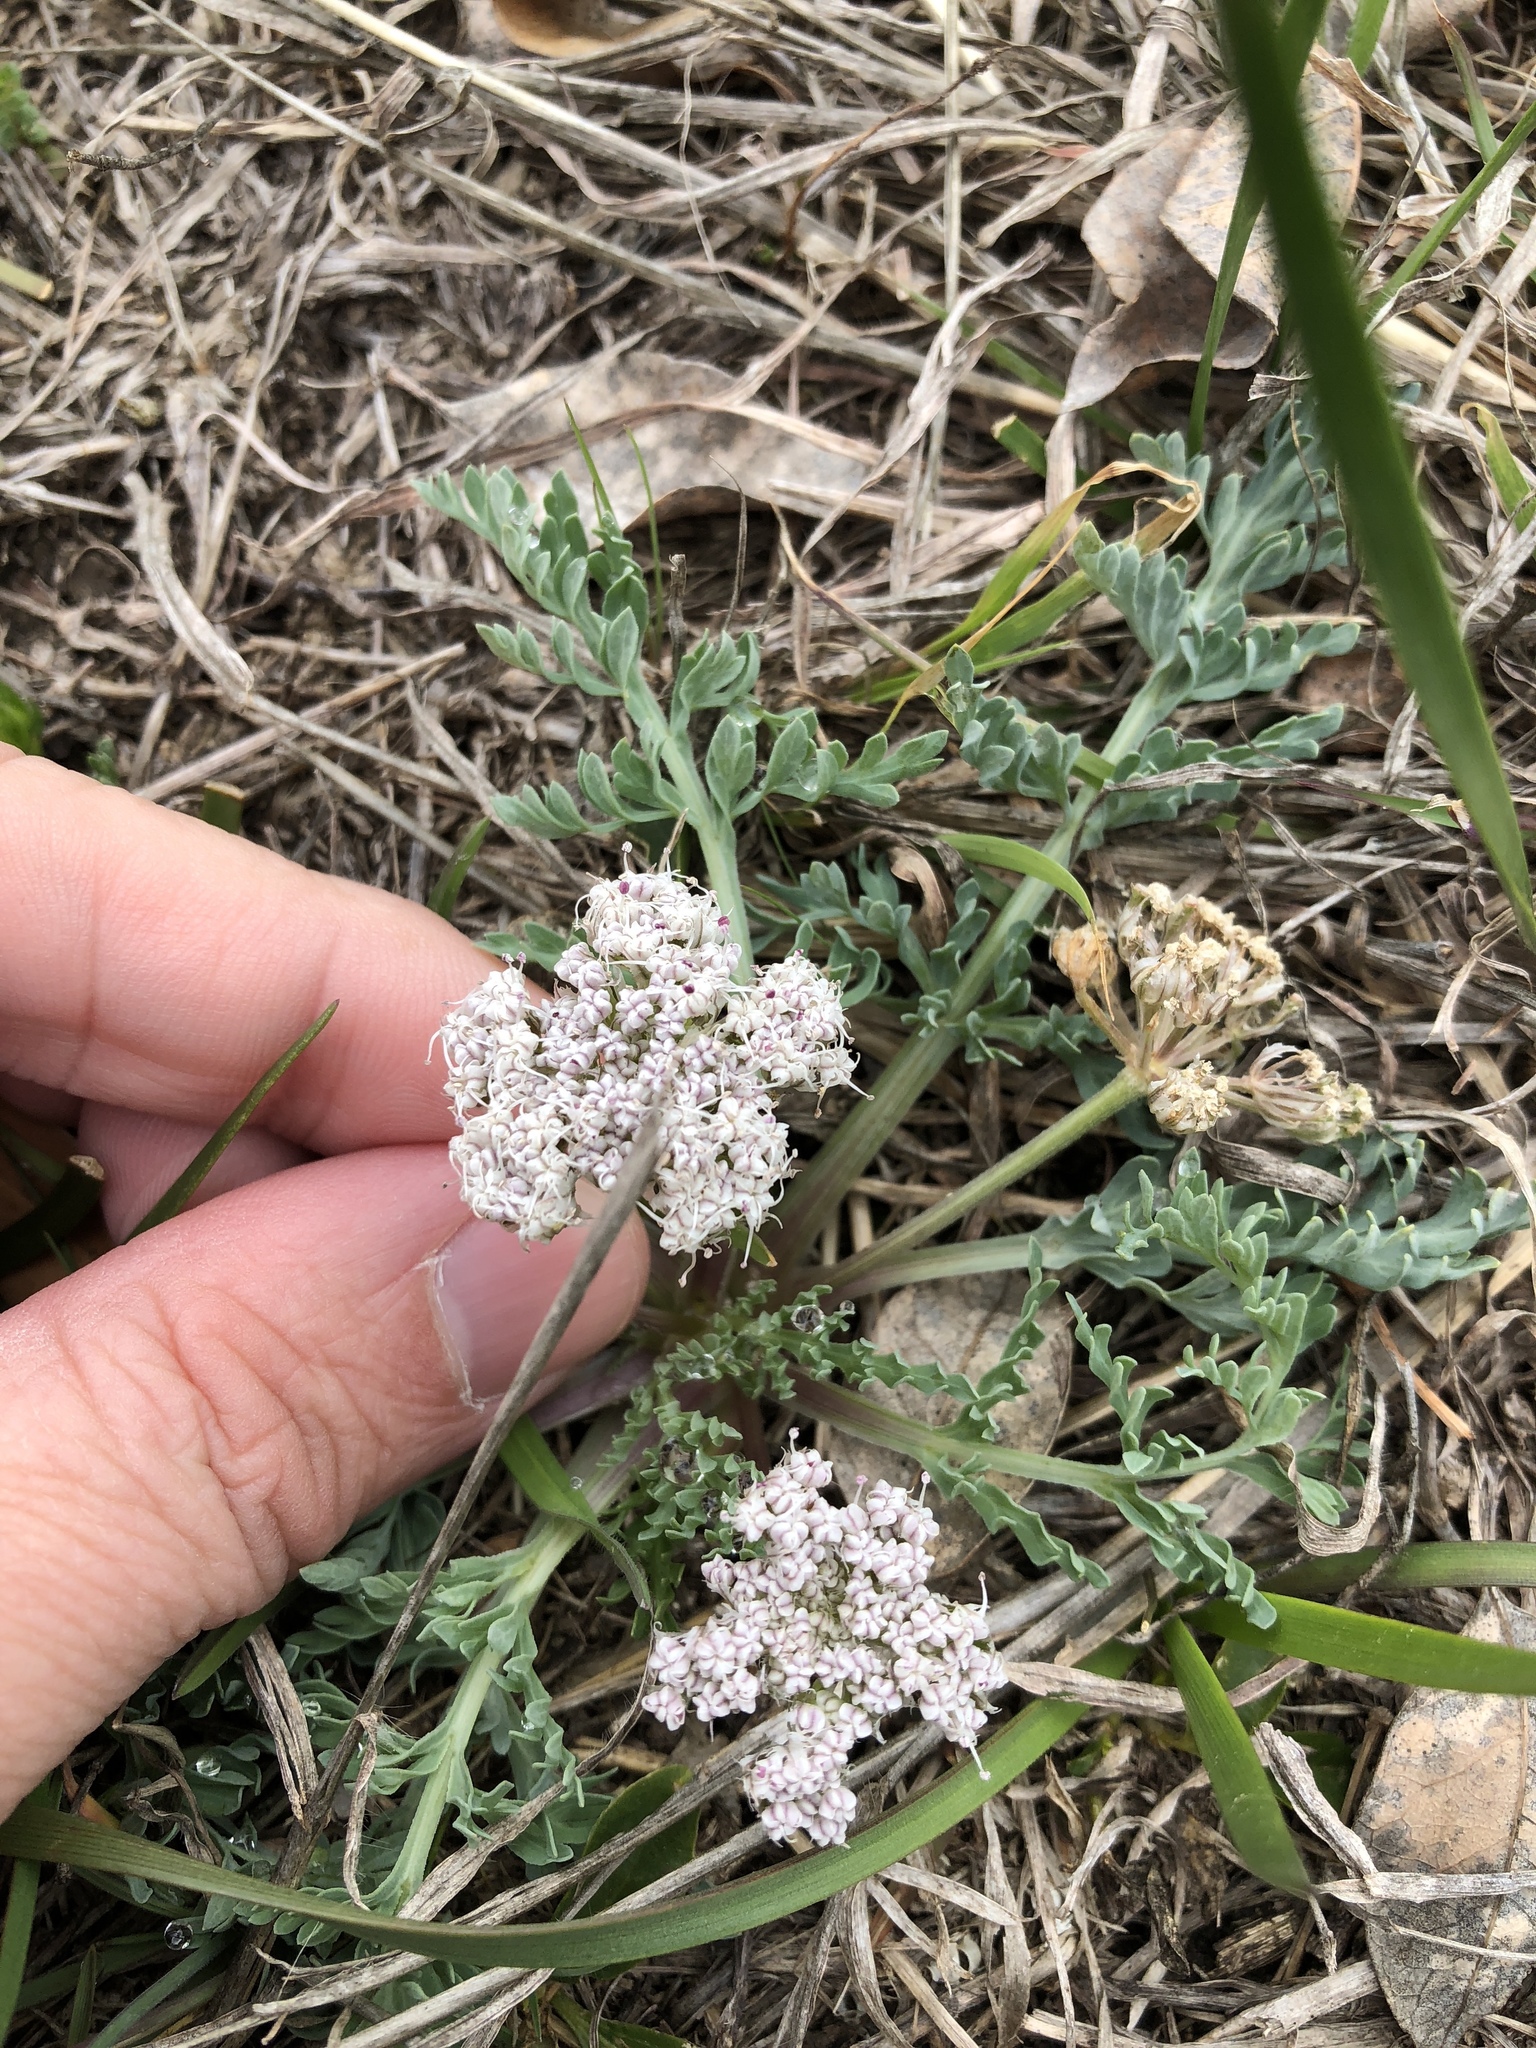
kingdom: Plantae
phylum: Tracheophyta
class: Magnoliopsida
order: Apiales
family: Apiaceae
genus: Vesper
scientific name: Vesper macrorhizus
